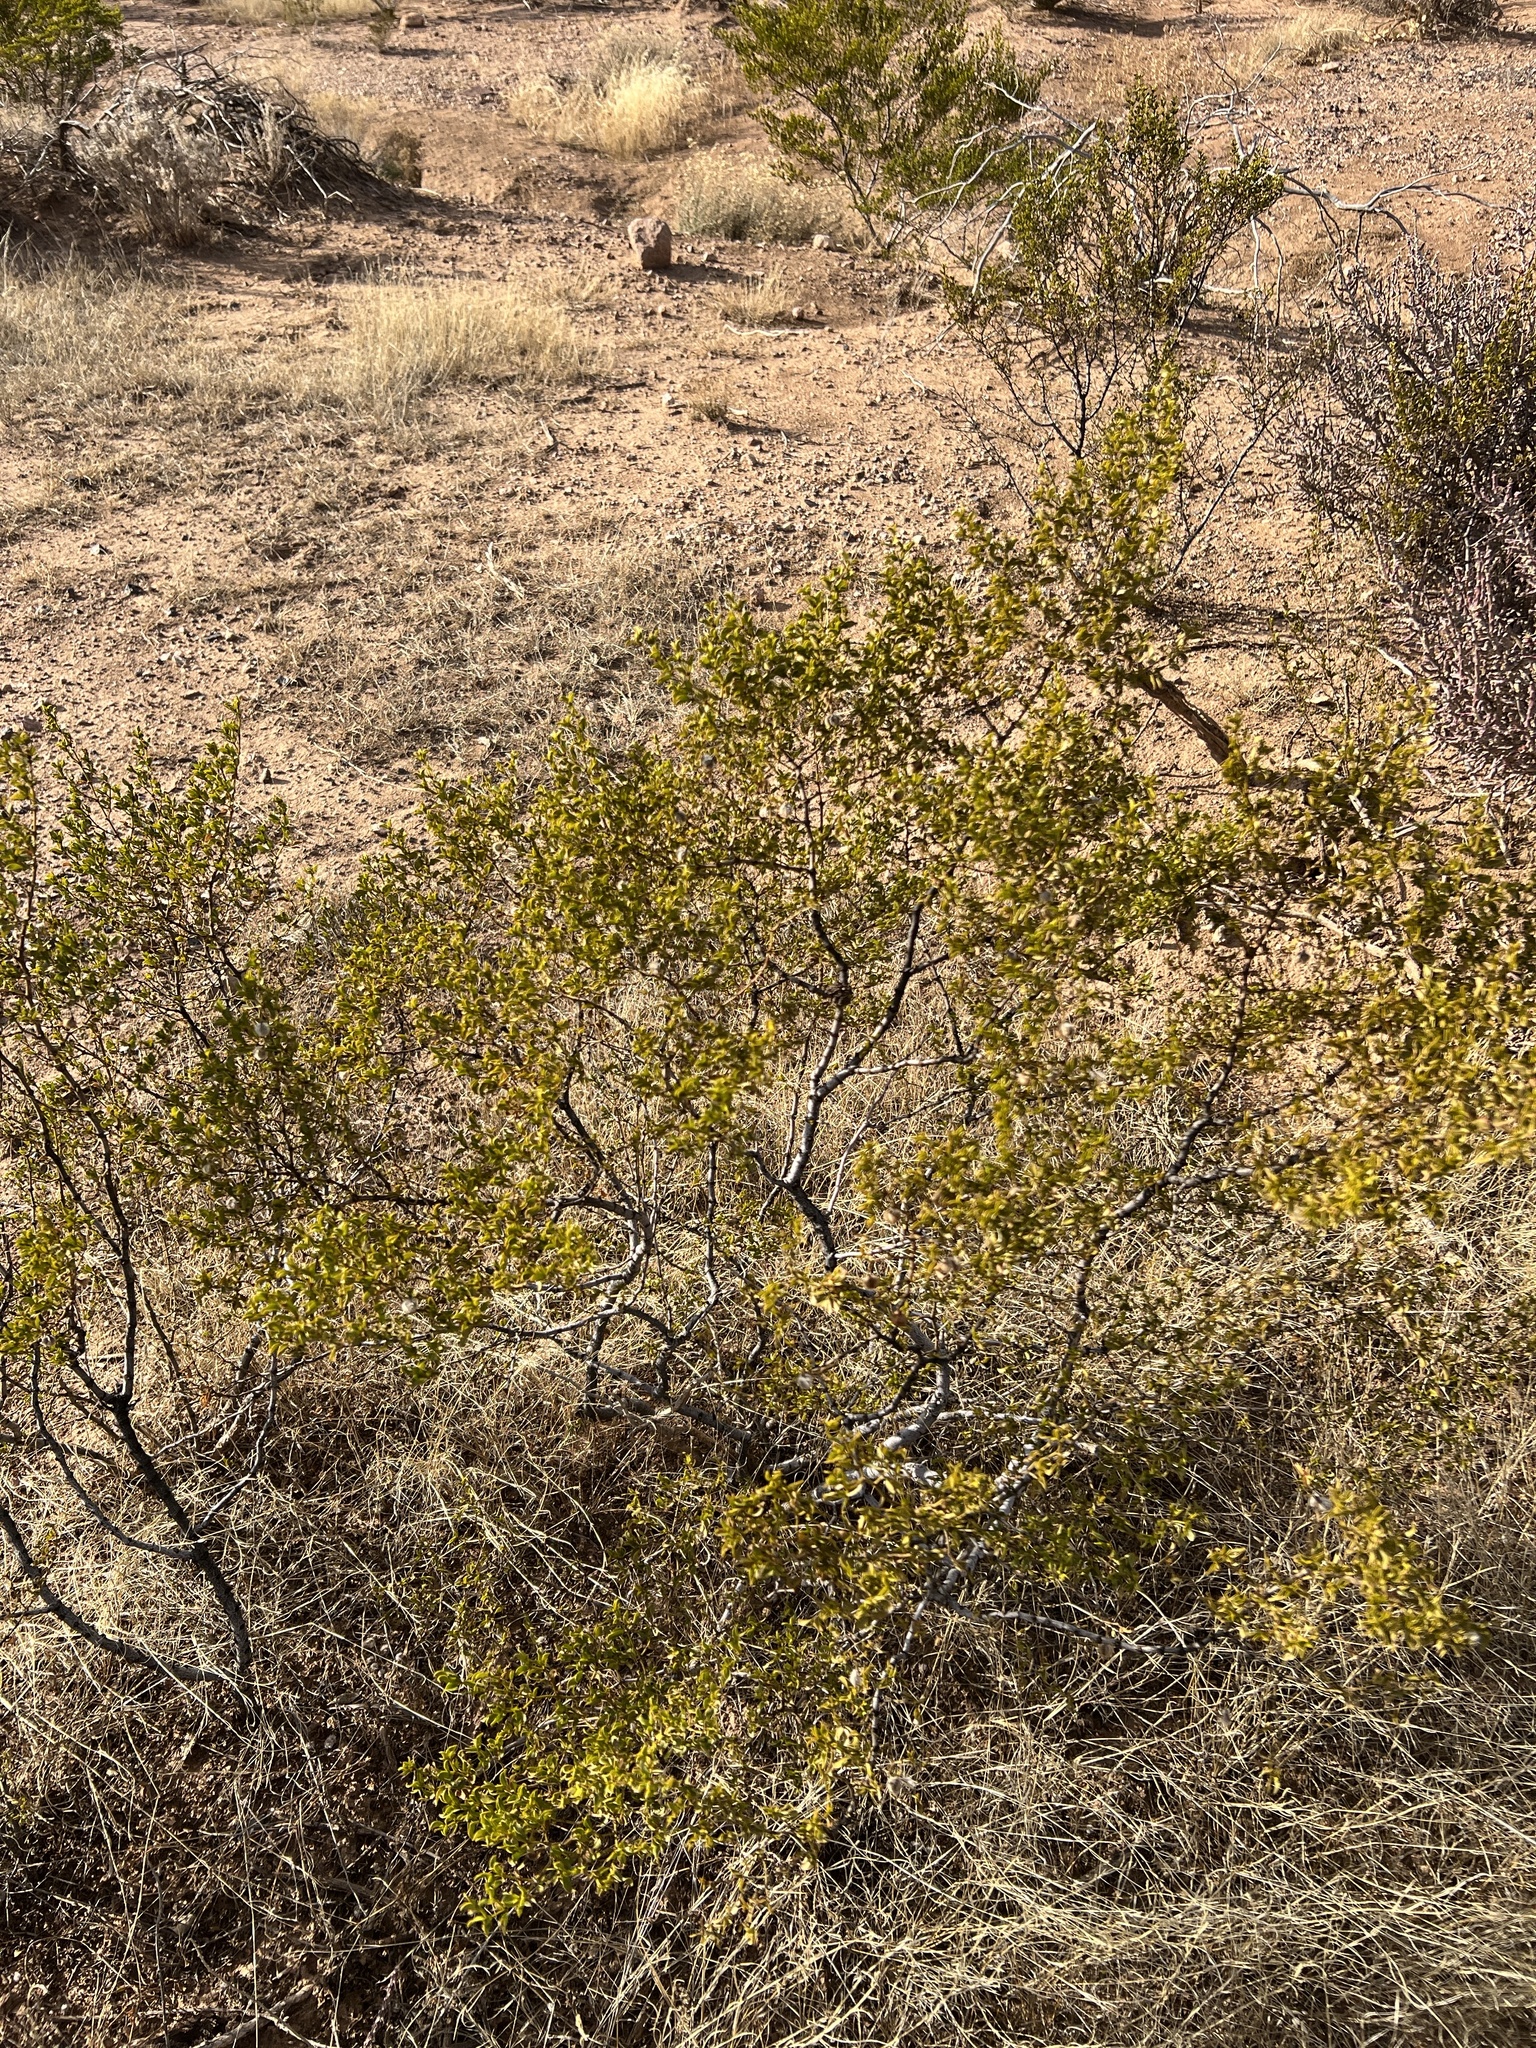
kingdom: Plantae
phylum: Tracheophyta
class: Magnoliopsida
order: Zygophyllales
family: Zygophyllaceae
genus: Larrea
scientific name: Larrea tridentata
